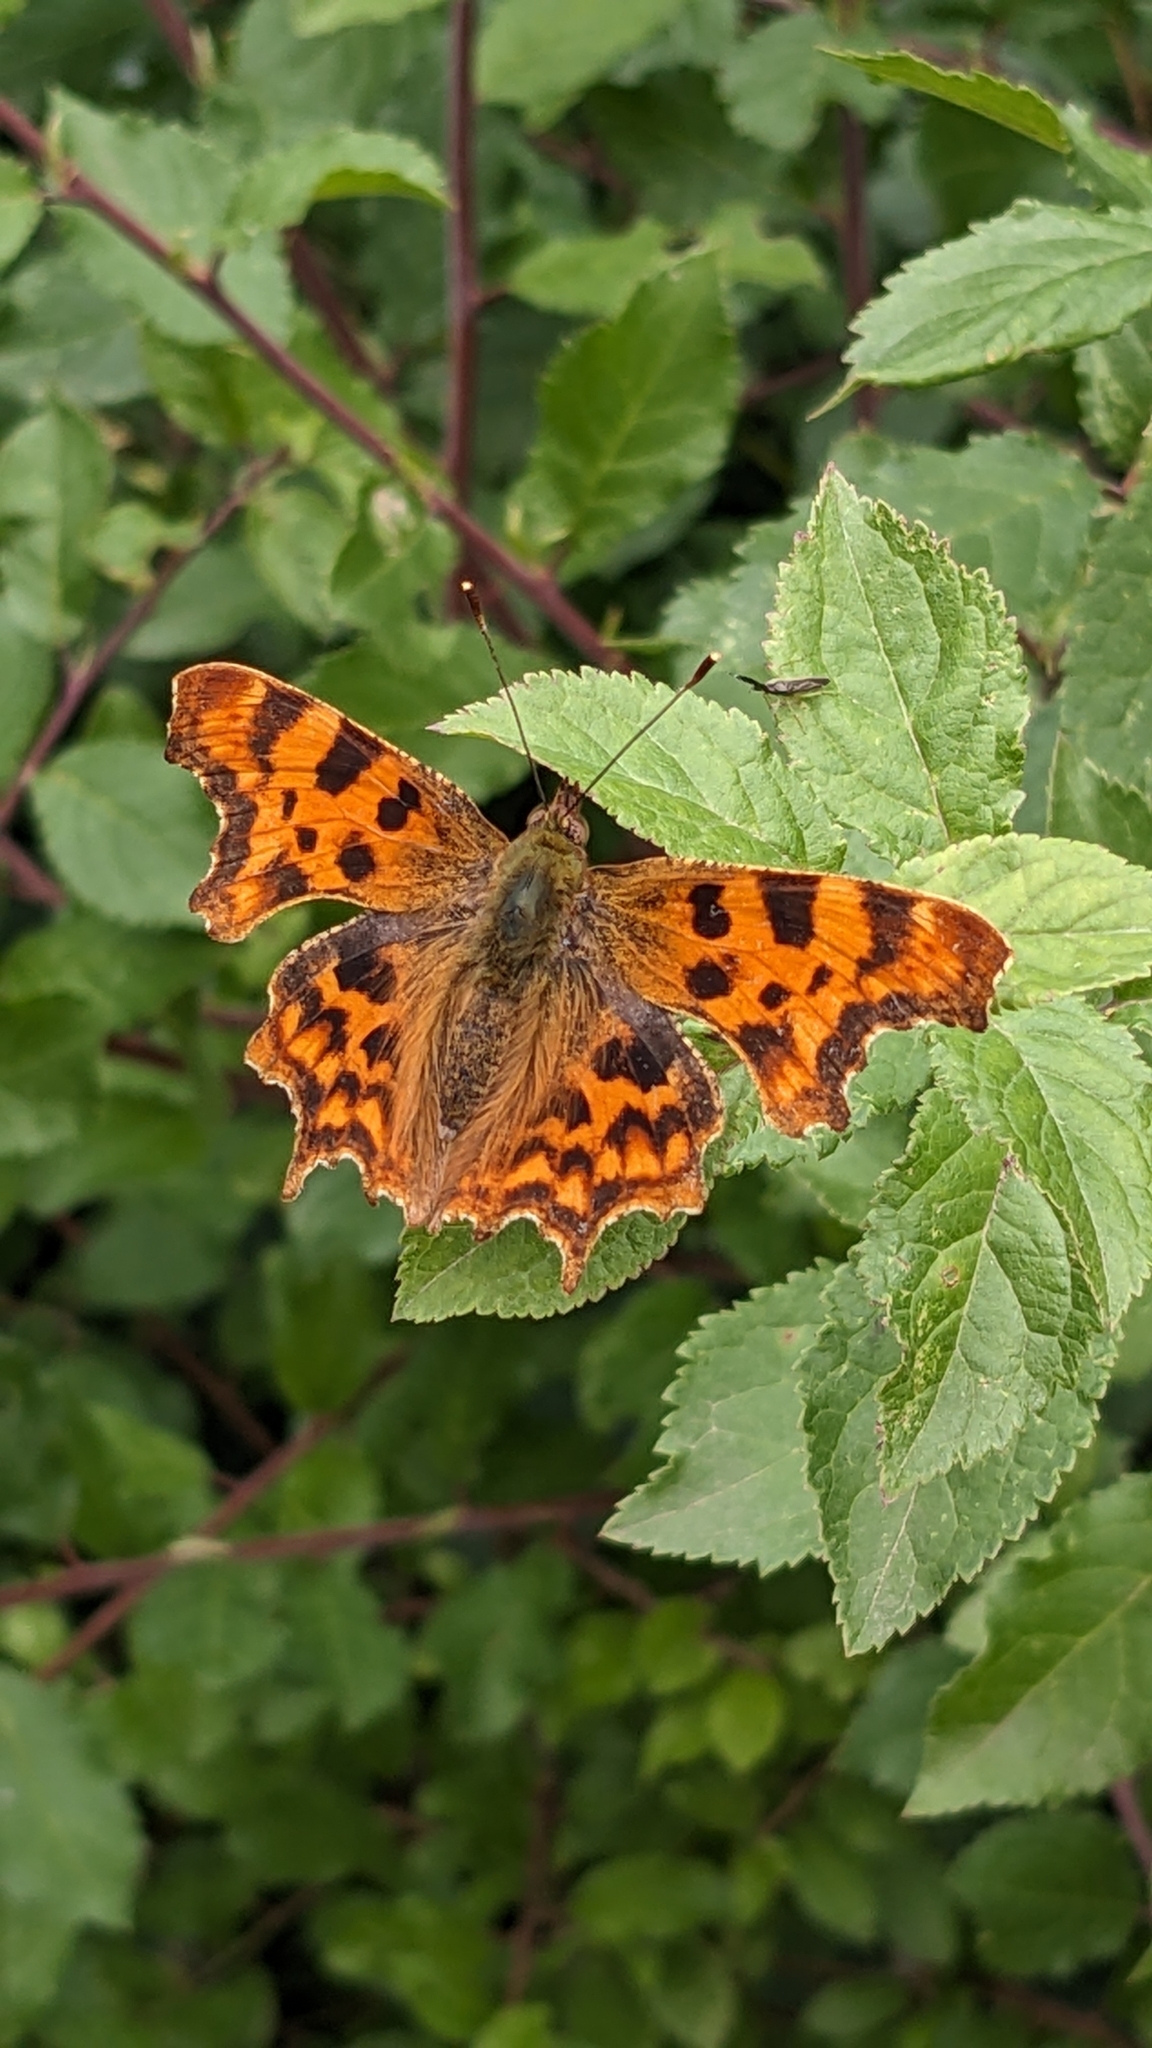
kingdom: Animalia
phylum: Arthropoda
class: Insecta
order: Lepidoptera
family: Nymphalidae
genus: Polygonia
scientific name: Polygonia c-album
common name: Comma
